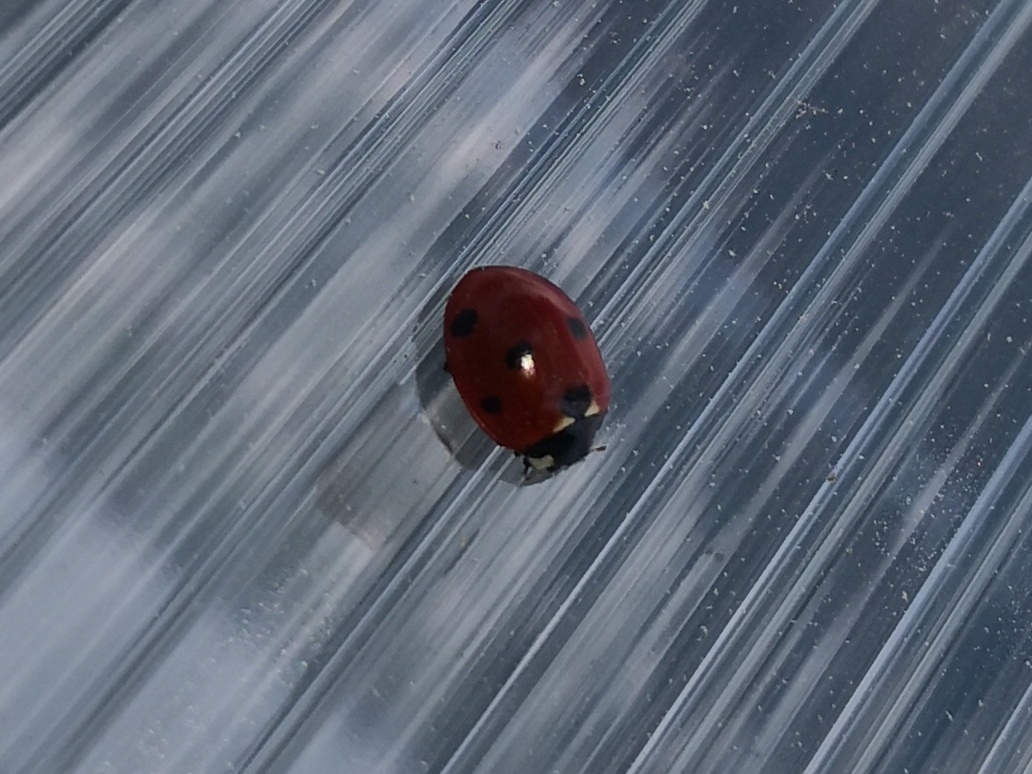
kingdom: Animalia
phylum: Arthropoda
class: Insecta
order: Coleoptera
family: Coccinellidae
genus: Coccinella
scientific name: Coccinella septempunctata
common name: Sevenspotted lady beetle
